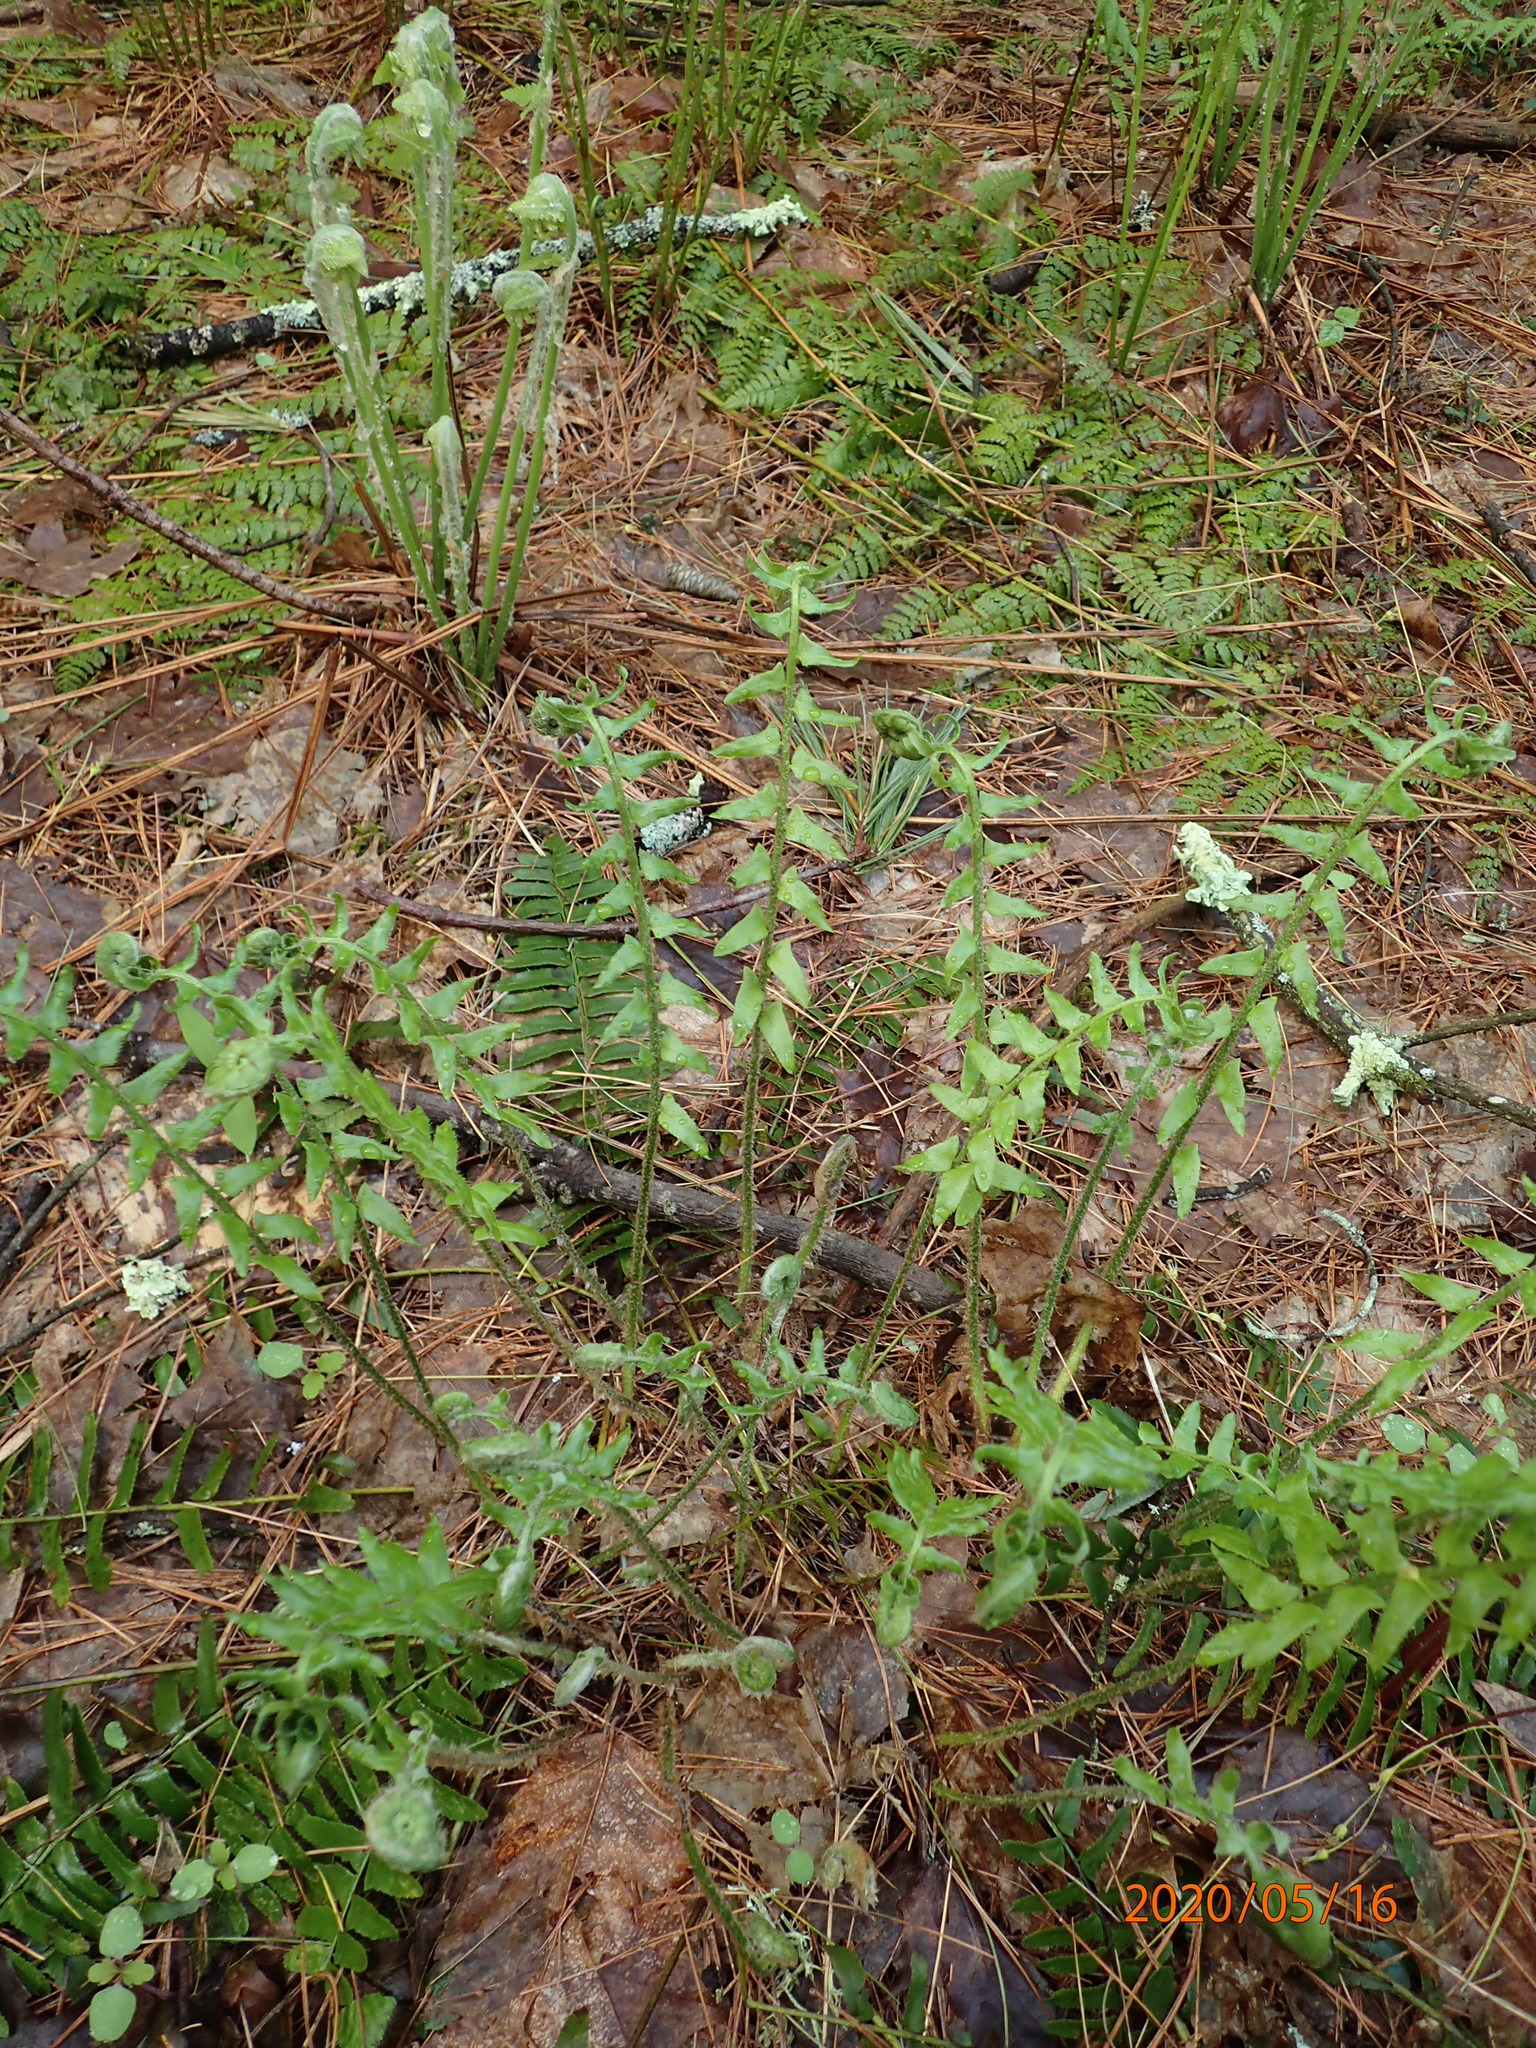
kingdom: Plantae
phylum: Tracheophyta
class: Polypodiopsida
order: Polypodiales
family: Dryopteridaceae
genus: Polystichum
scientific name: Polystichum acrostichoides
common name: Christmas fern
